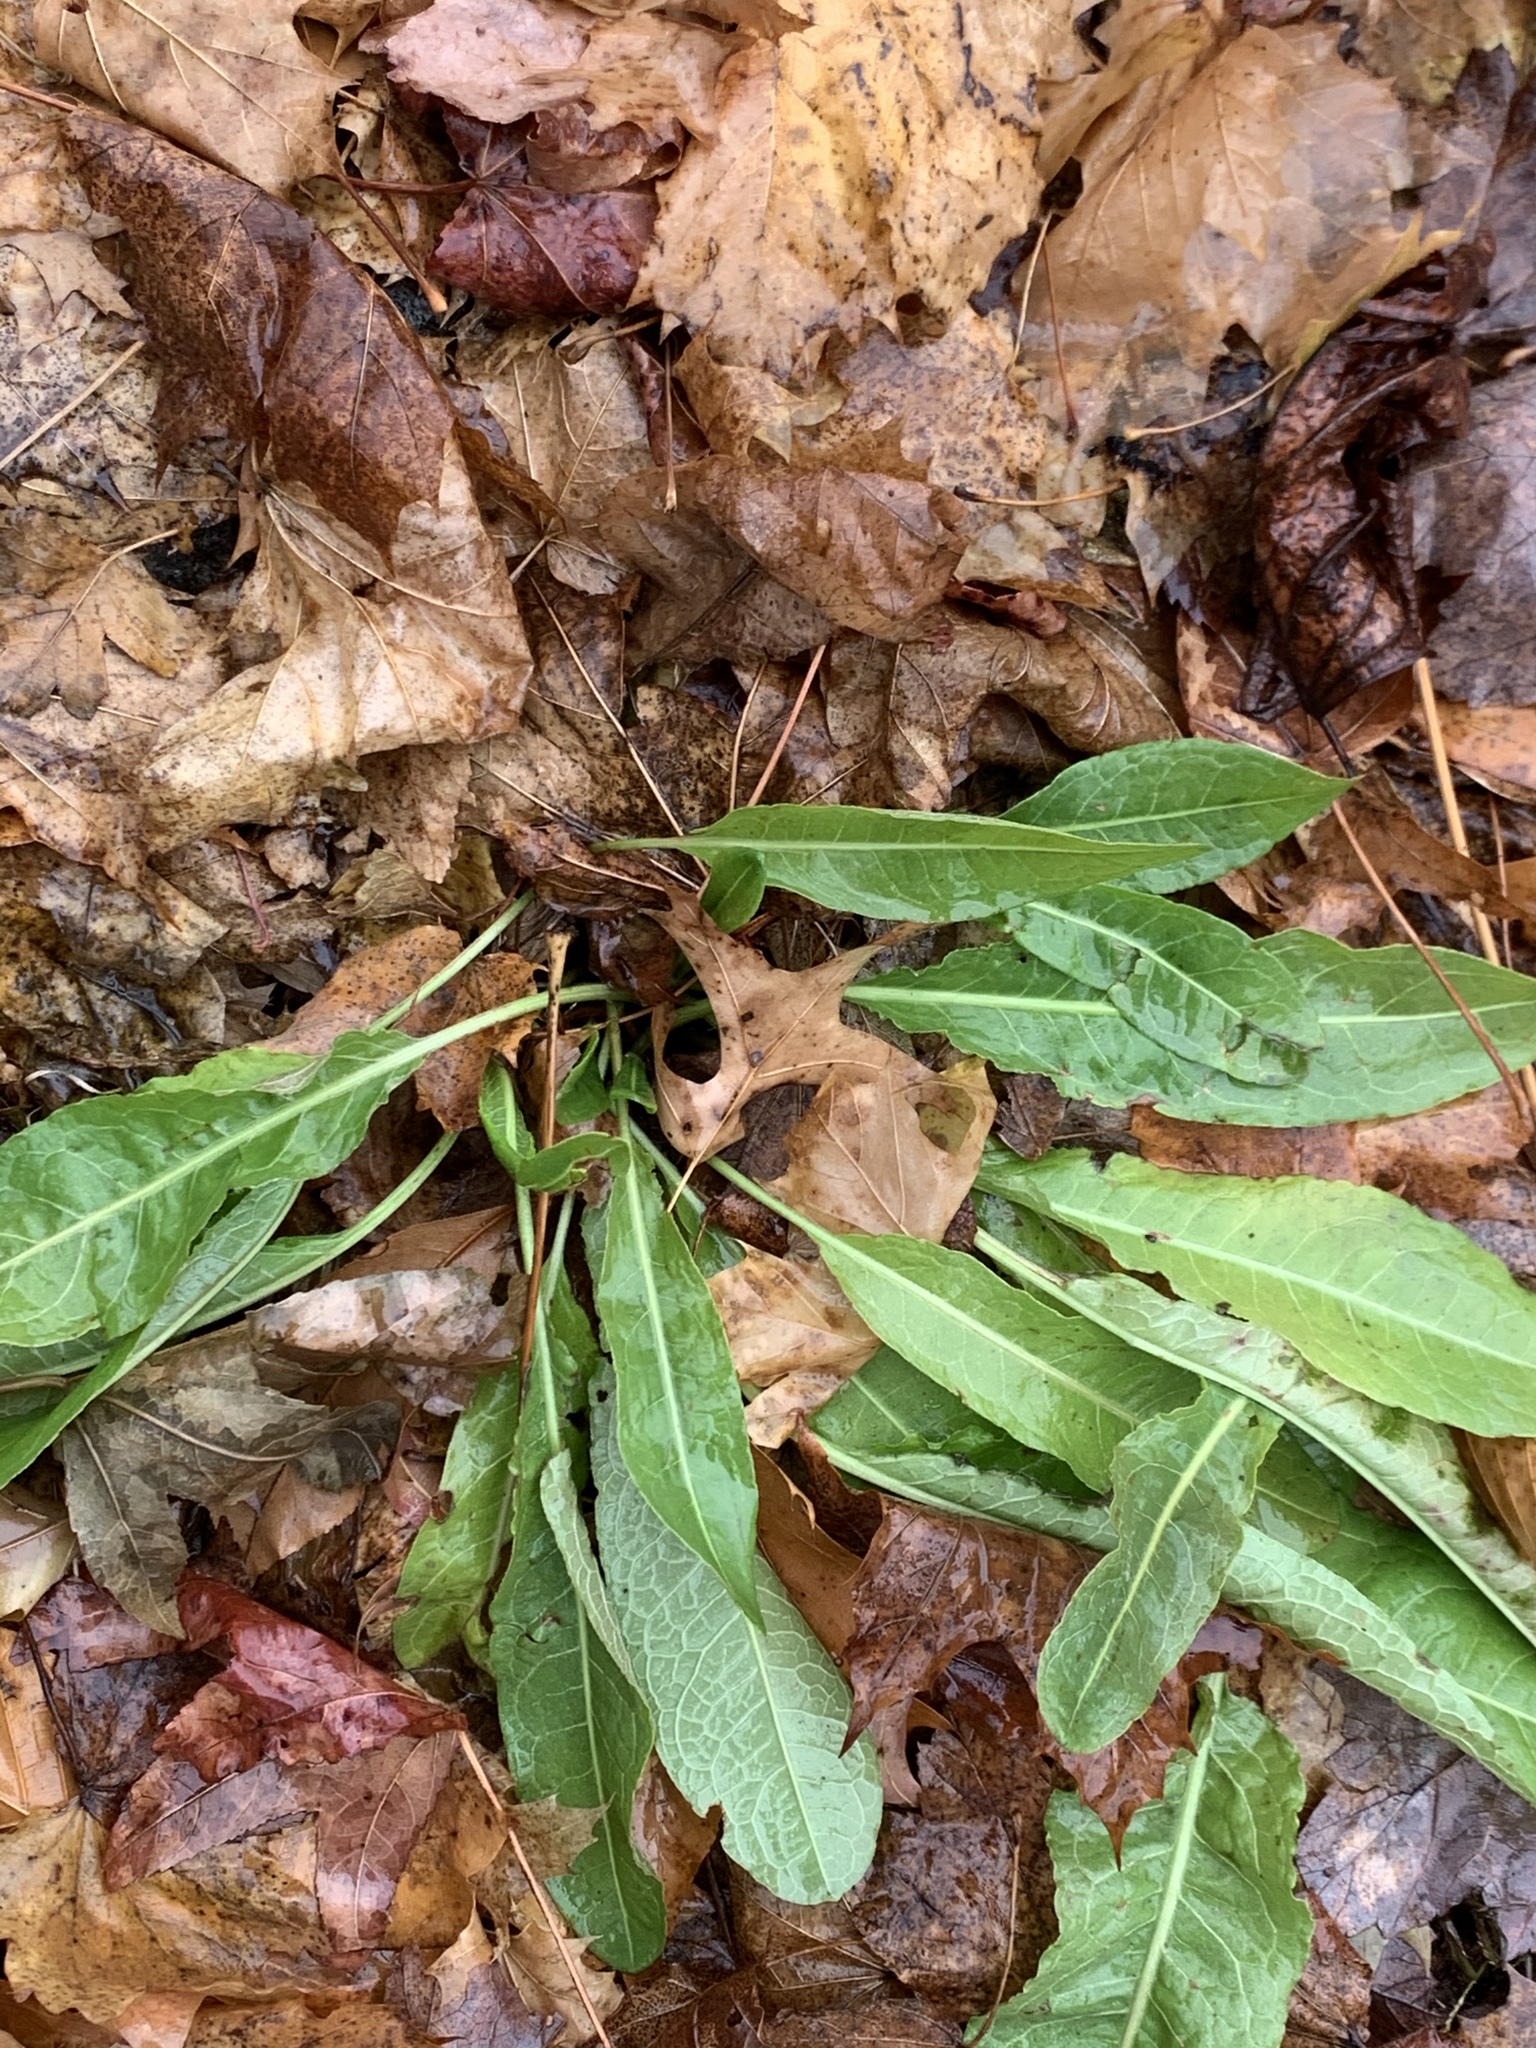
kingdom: Plantae
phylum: Tracheophyta
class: Magnoliopsida
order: Caryophyllales
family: Polygonaceae
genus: Rumex
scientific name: Rumex crispus
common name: Curled dock
